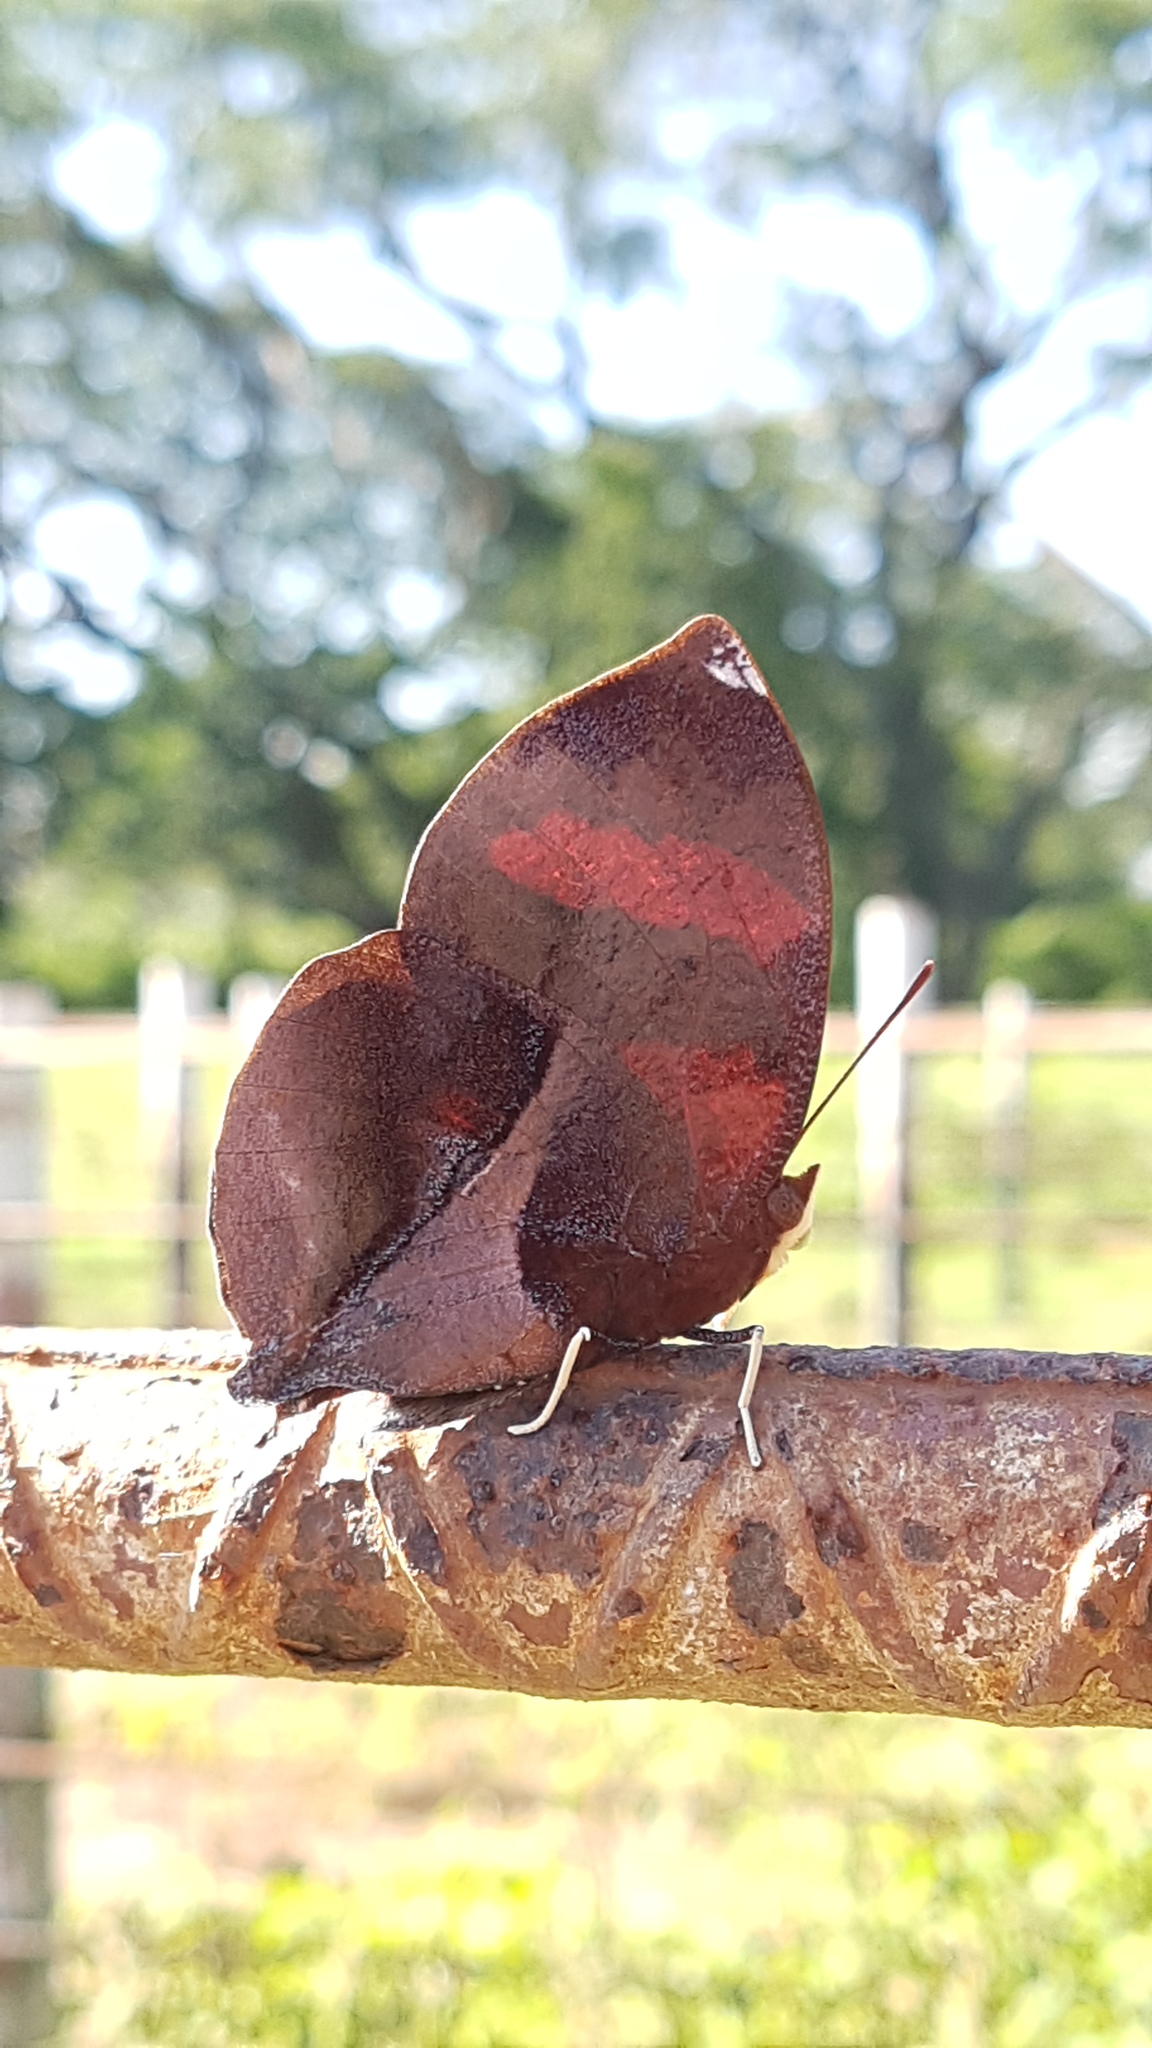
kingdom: Animalia
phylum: Arthropoda
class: Insecta
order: Lepidoptera
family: Nymphalidae
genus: Siderone
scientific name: Siderone galanthis
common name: Red-striped leafwing
